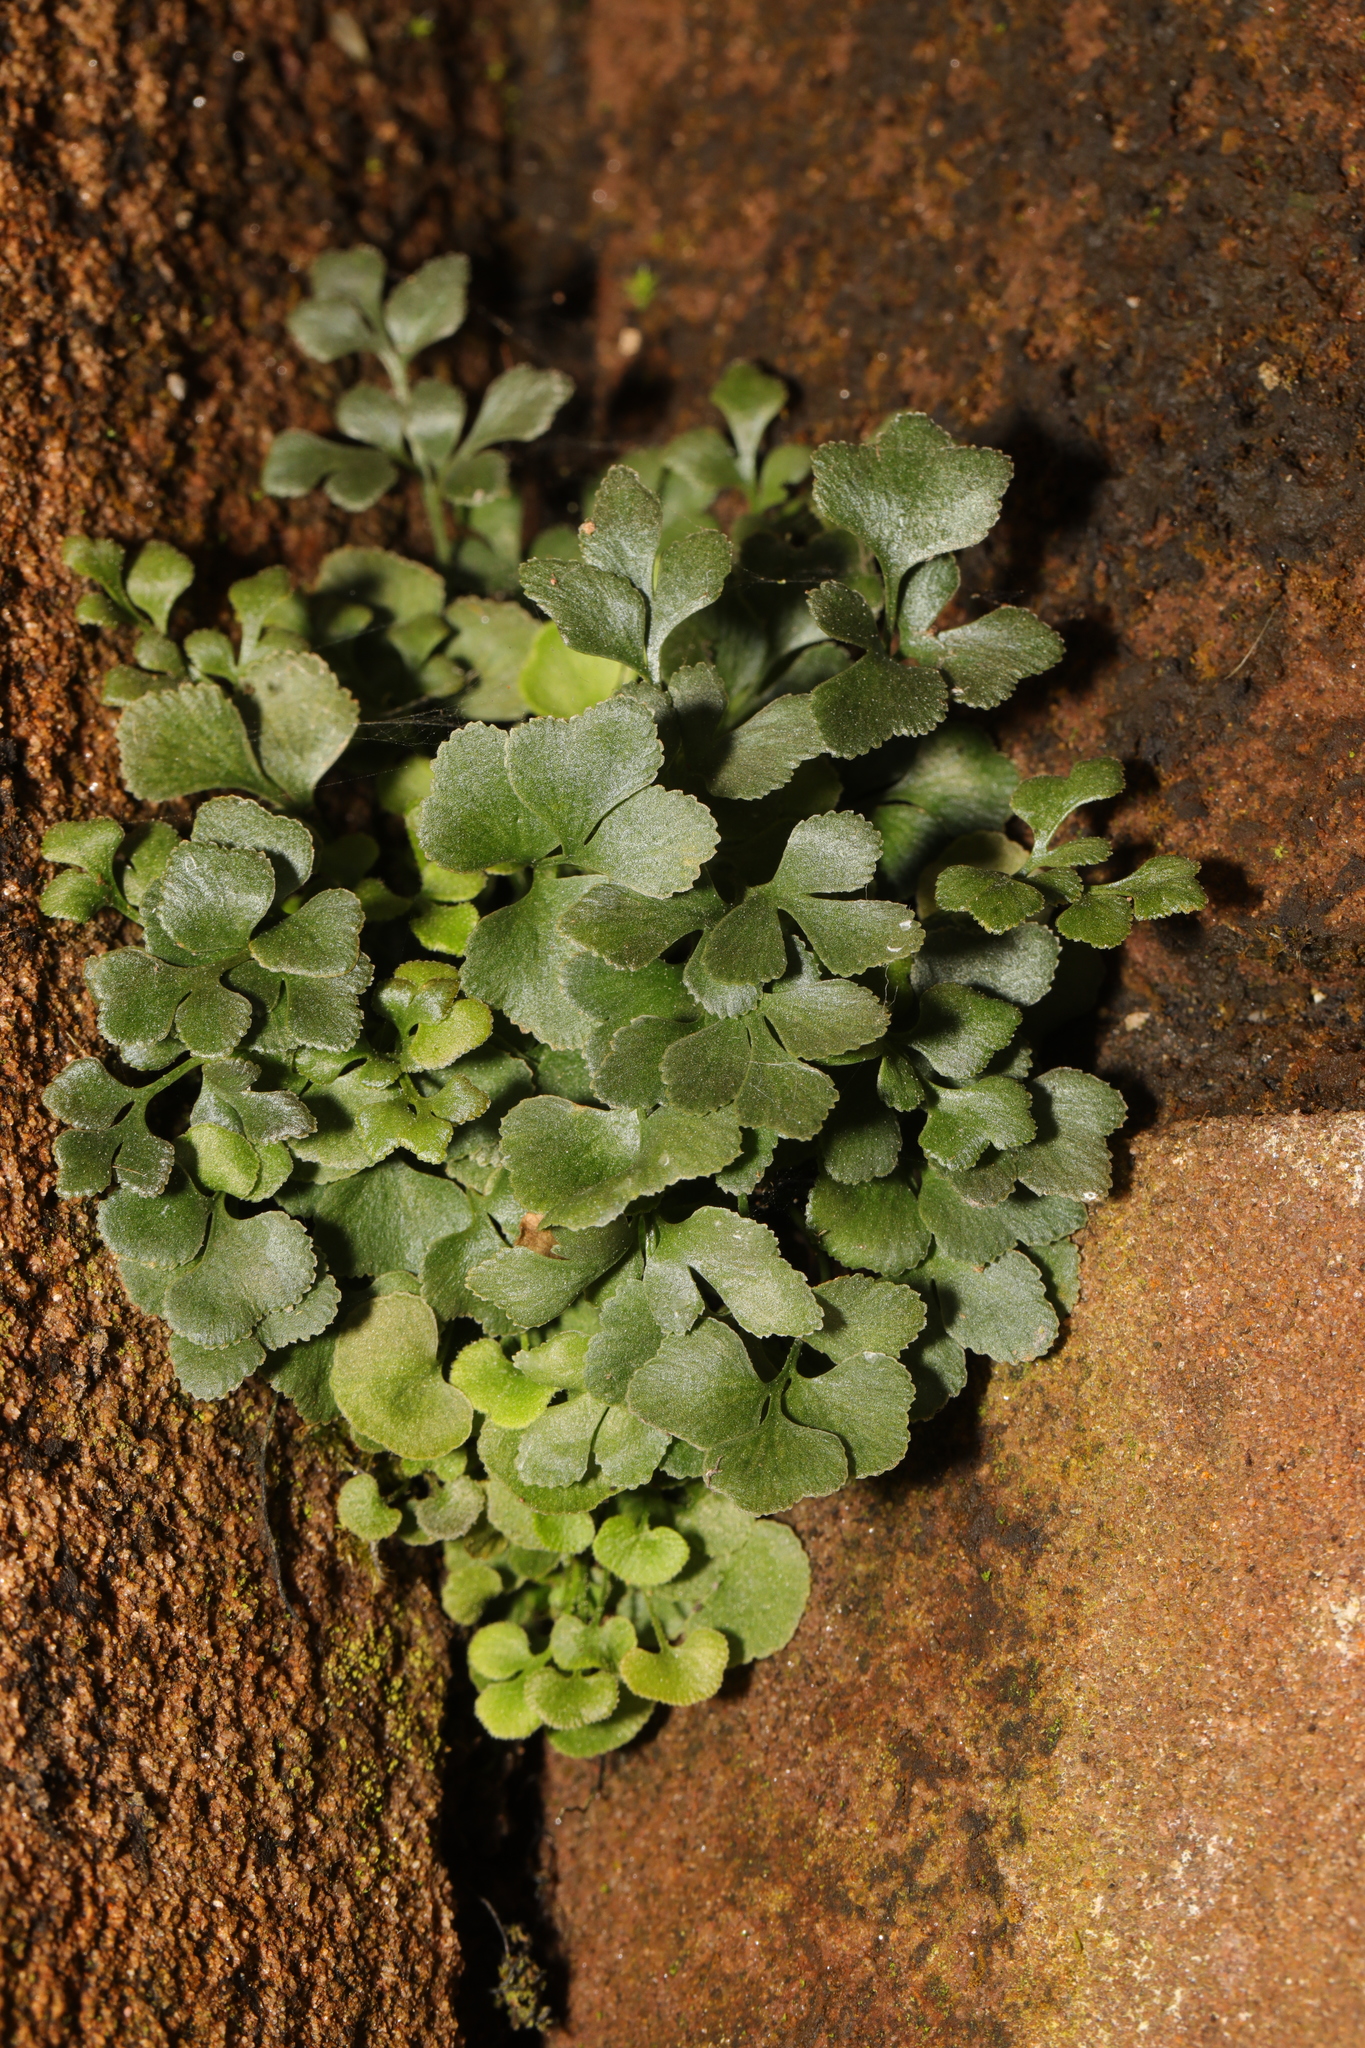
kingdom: Plantae
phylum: Tracheophyta
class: Polypodiopsida
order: Polypodiales
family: Aspleniaceae
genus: Asplenium
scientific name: Asplenium ruta-muraria
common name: Wall-rue
